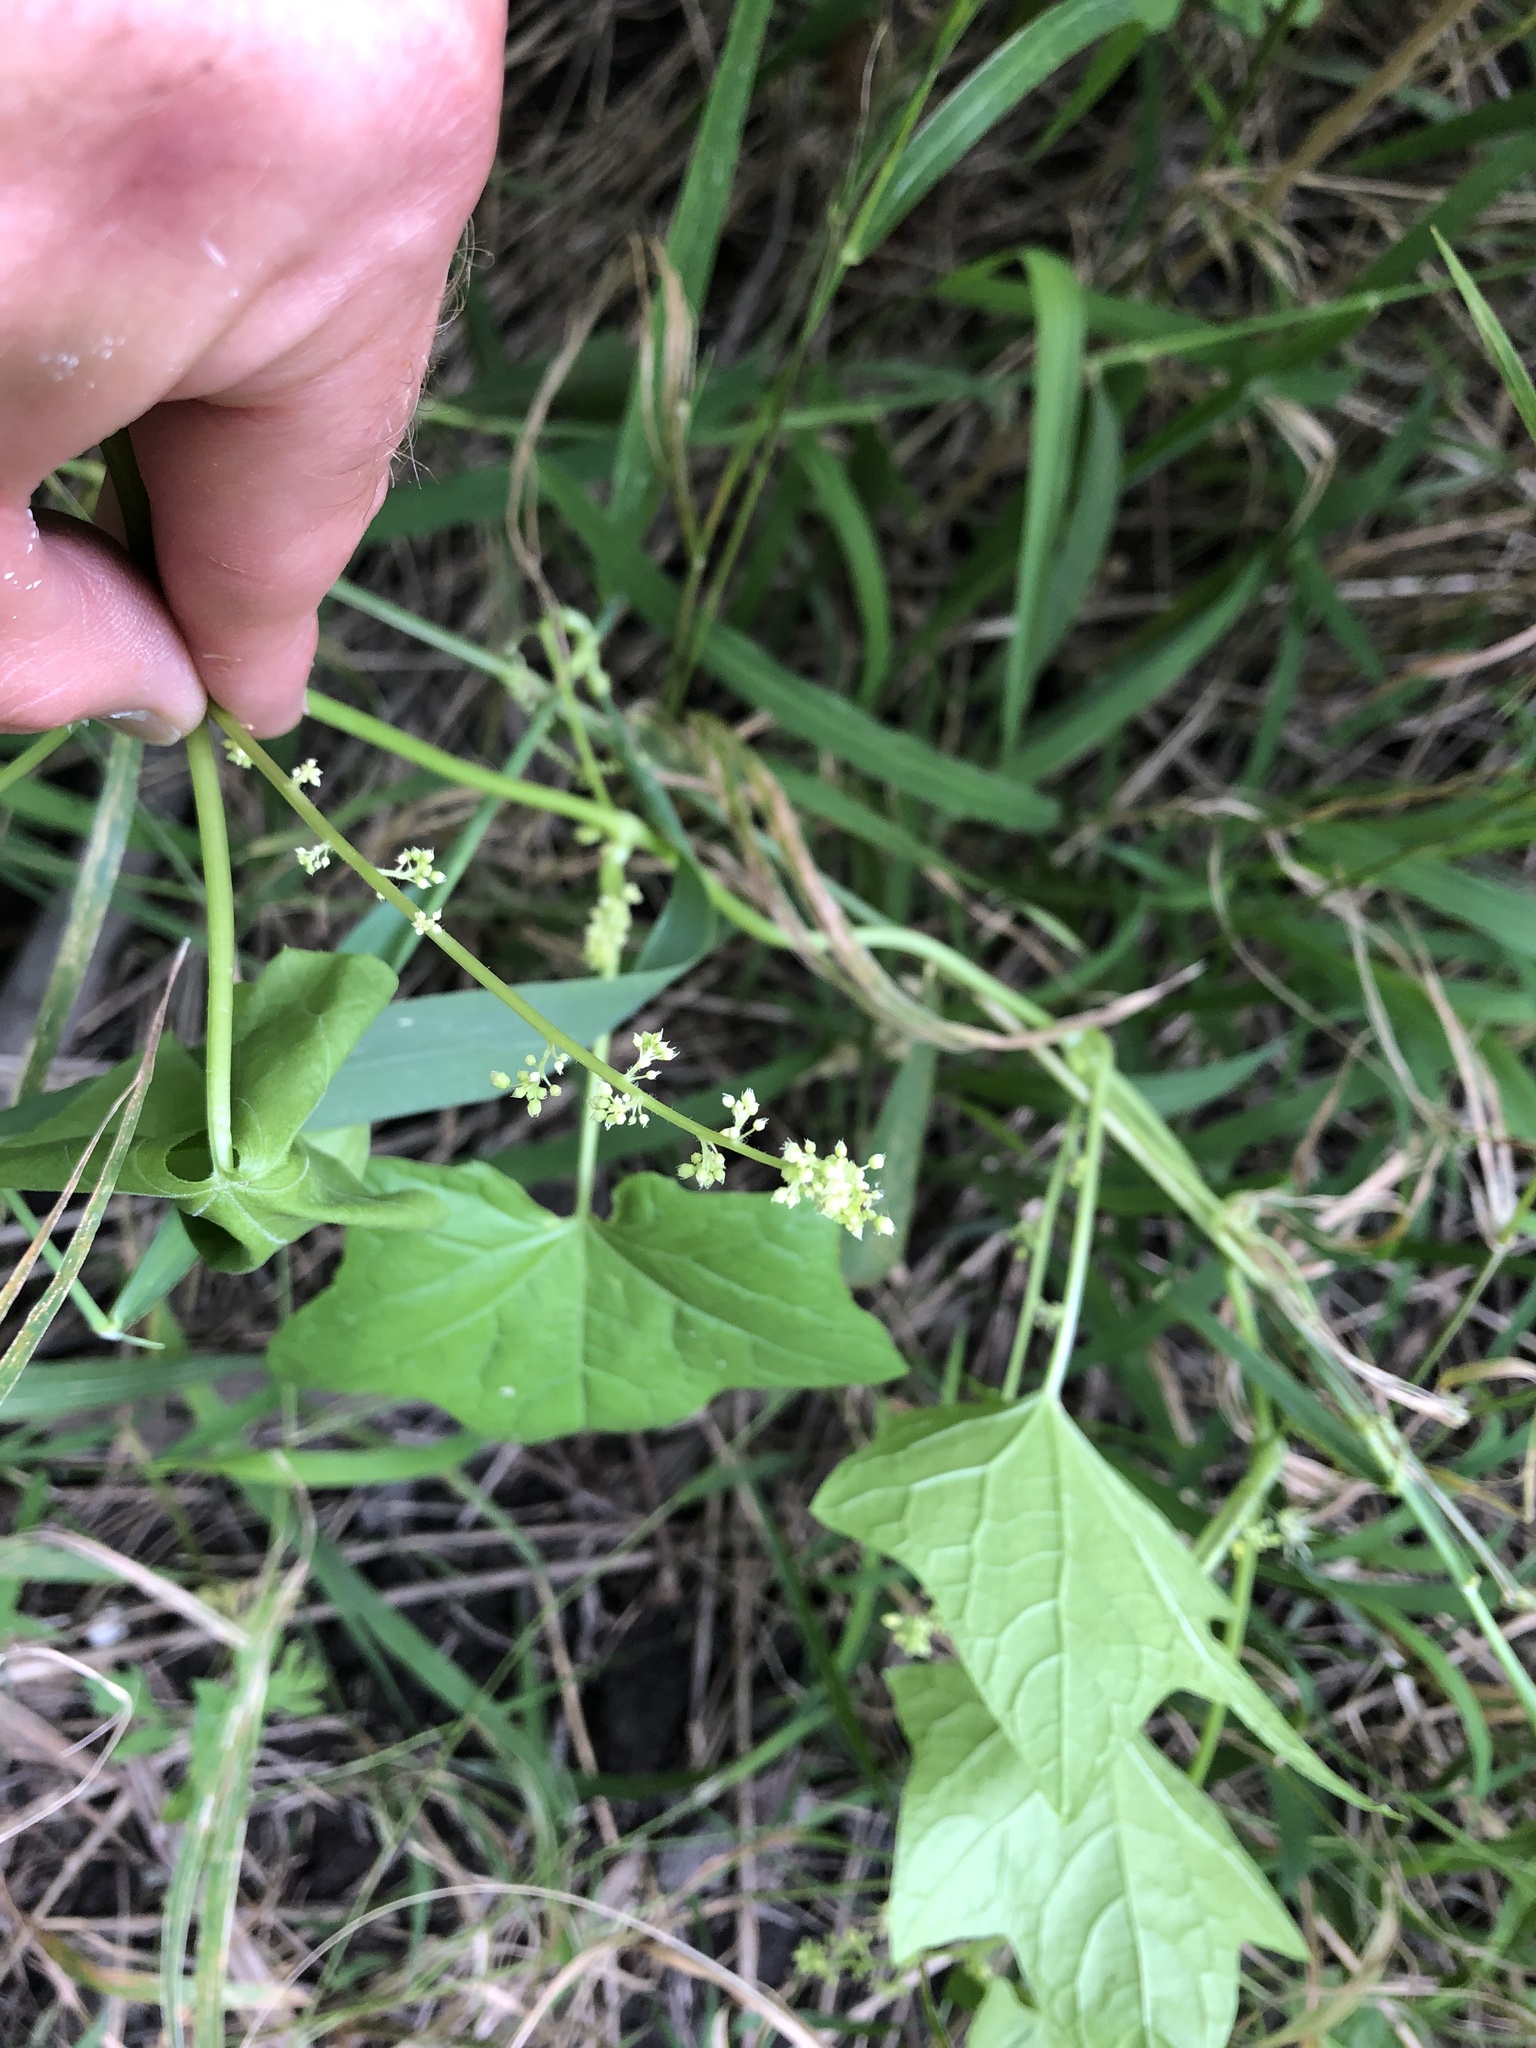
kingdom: Plantae
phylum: Tracheophyta
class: Magnoliopsida
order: Cucurbitales
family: Cucurbitaceae
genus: Echinocystis
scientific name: Echinocystis lobata
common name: Wild cucumber
